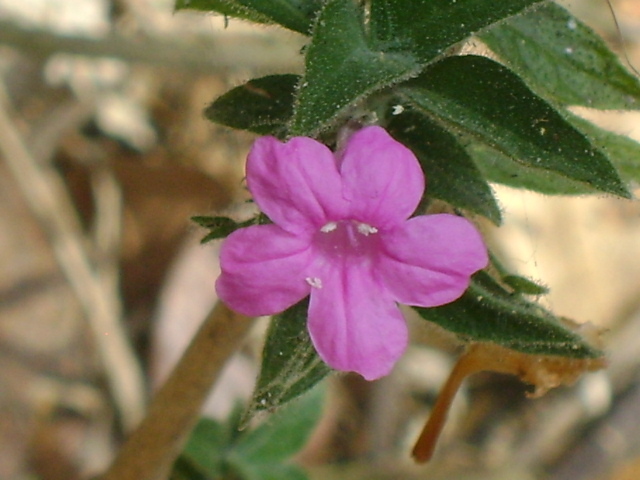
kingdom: Plantae
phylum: Tracheophyta
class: Magnoliopsida
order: Lamiales
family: Acanthaceae
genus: Ruellia
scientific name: Ruellia inundata
